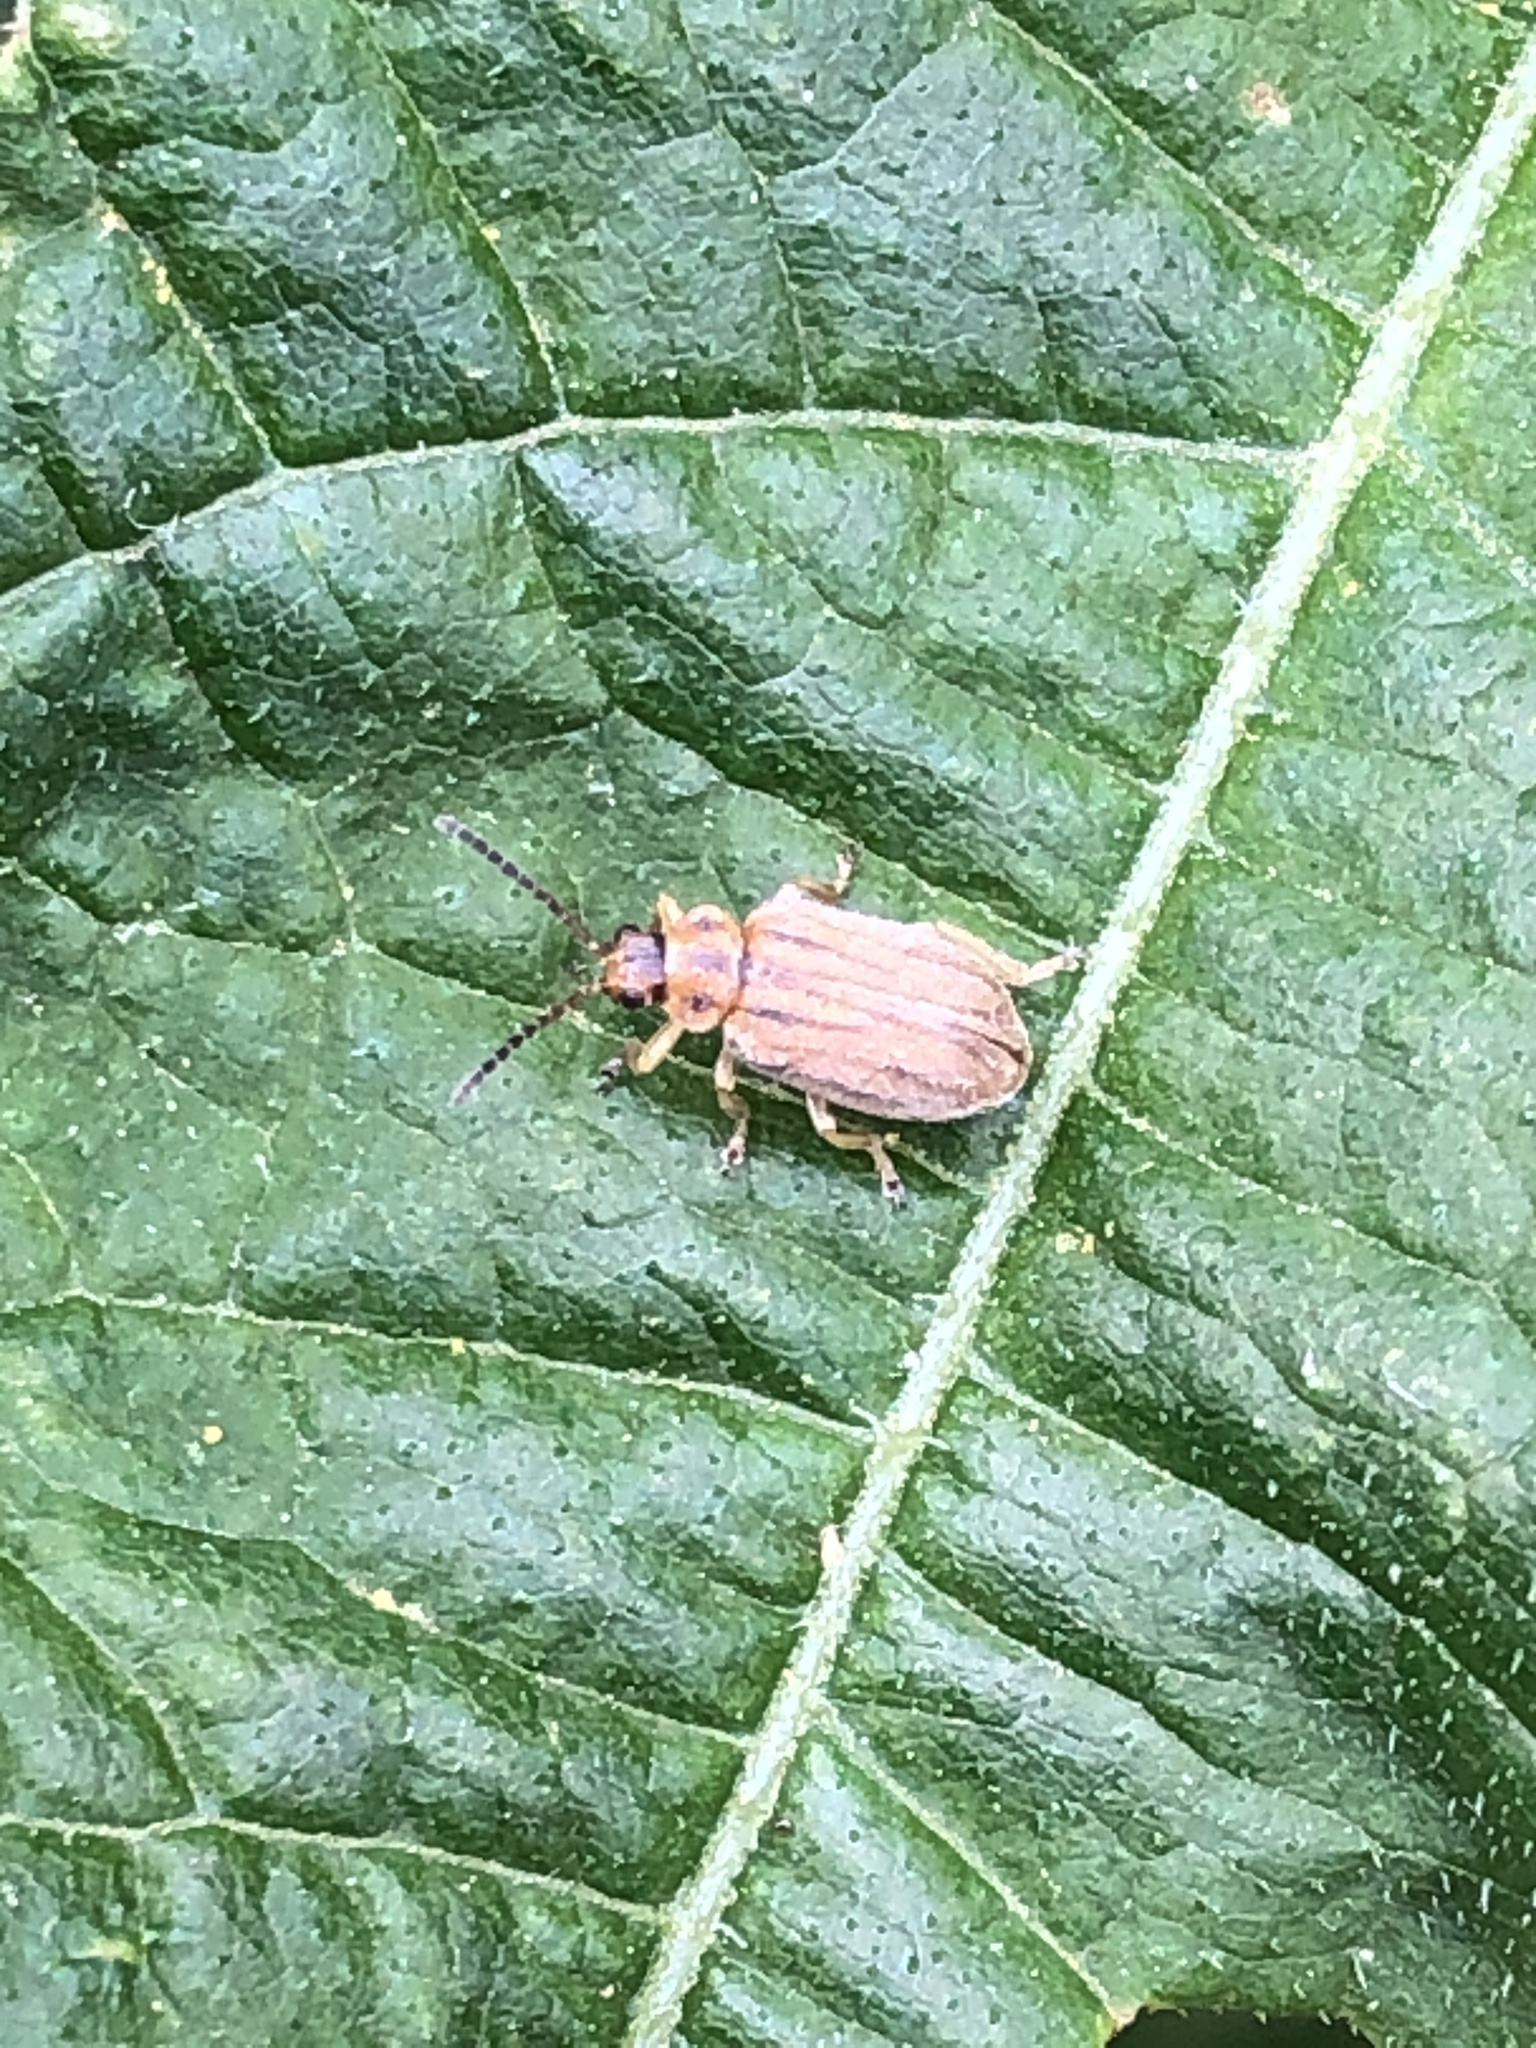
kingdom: Animalia
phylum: Arthropoda
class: Insecta
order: Coleoptera
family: Chrysomelidae
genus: Ophraella
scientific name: Ophraella communa
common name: Ragweed leaf beetle
